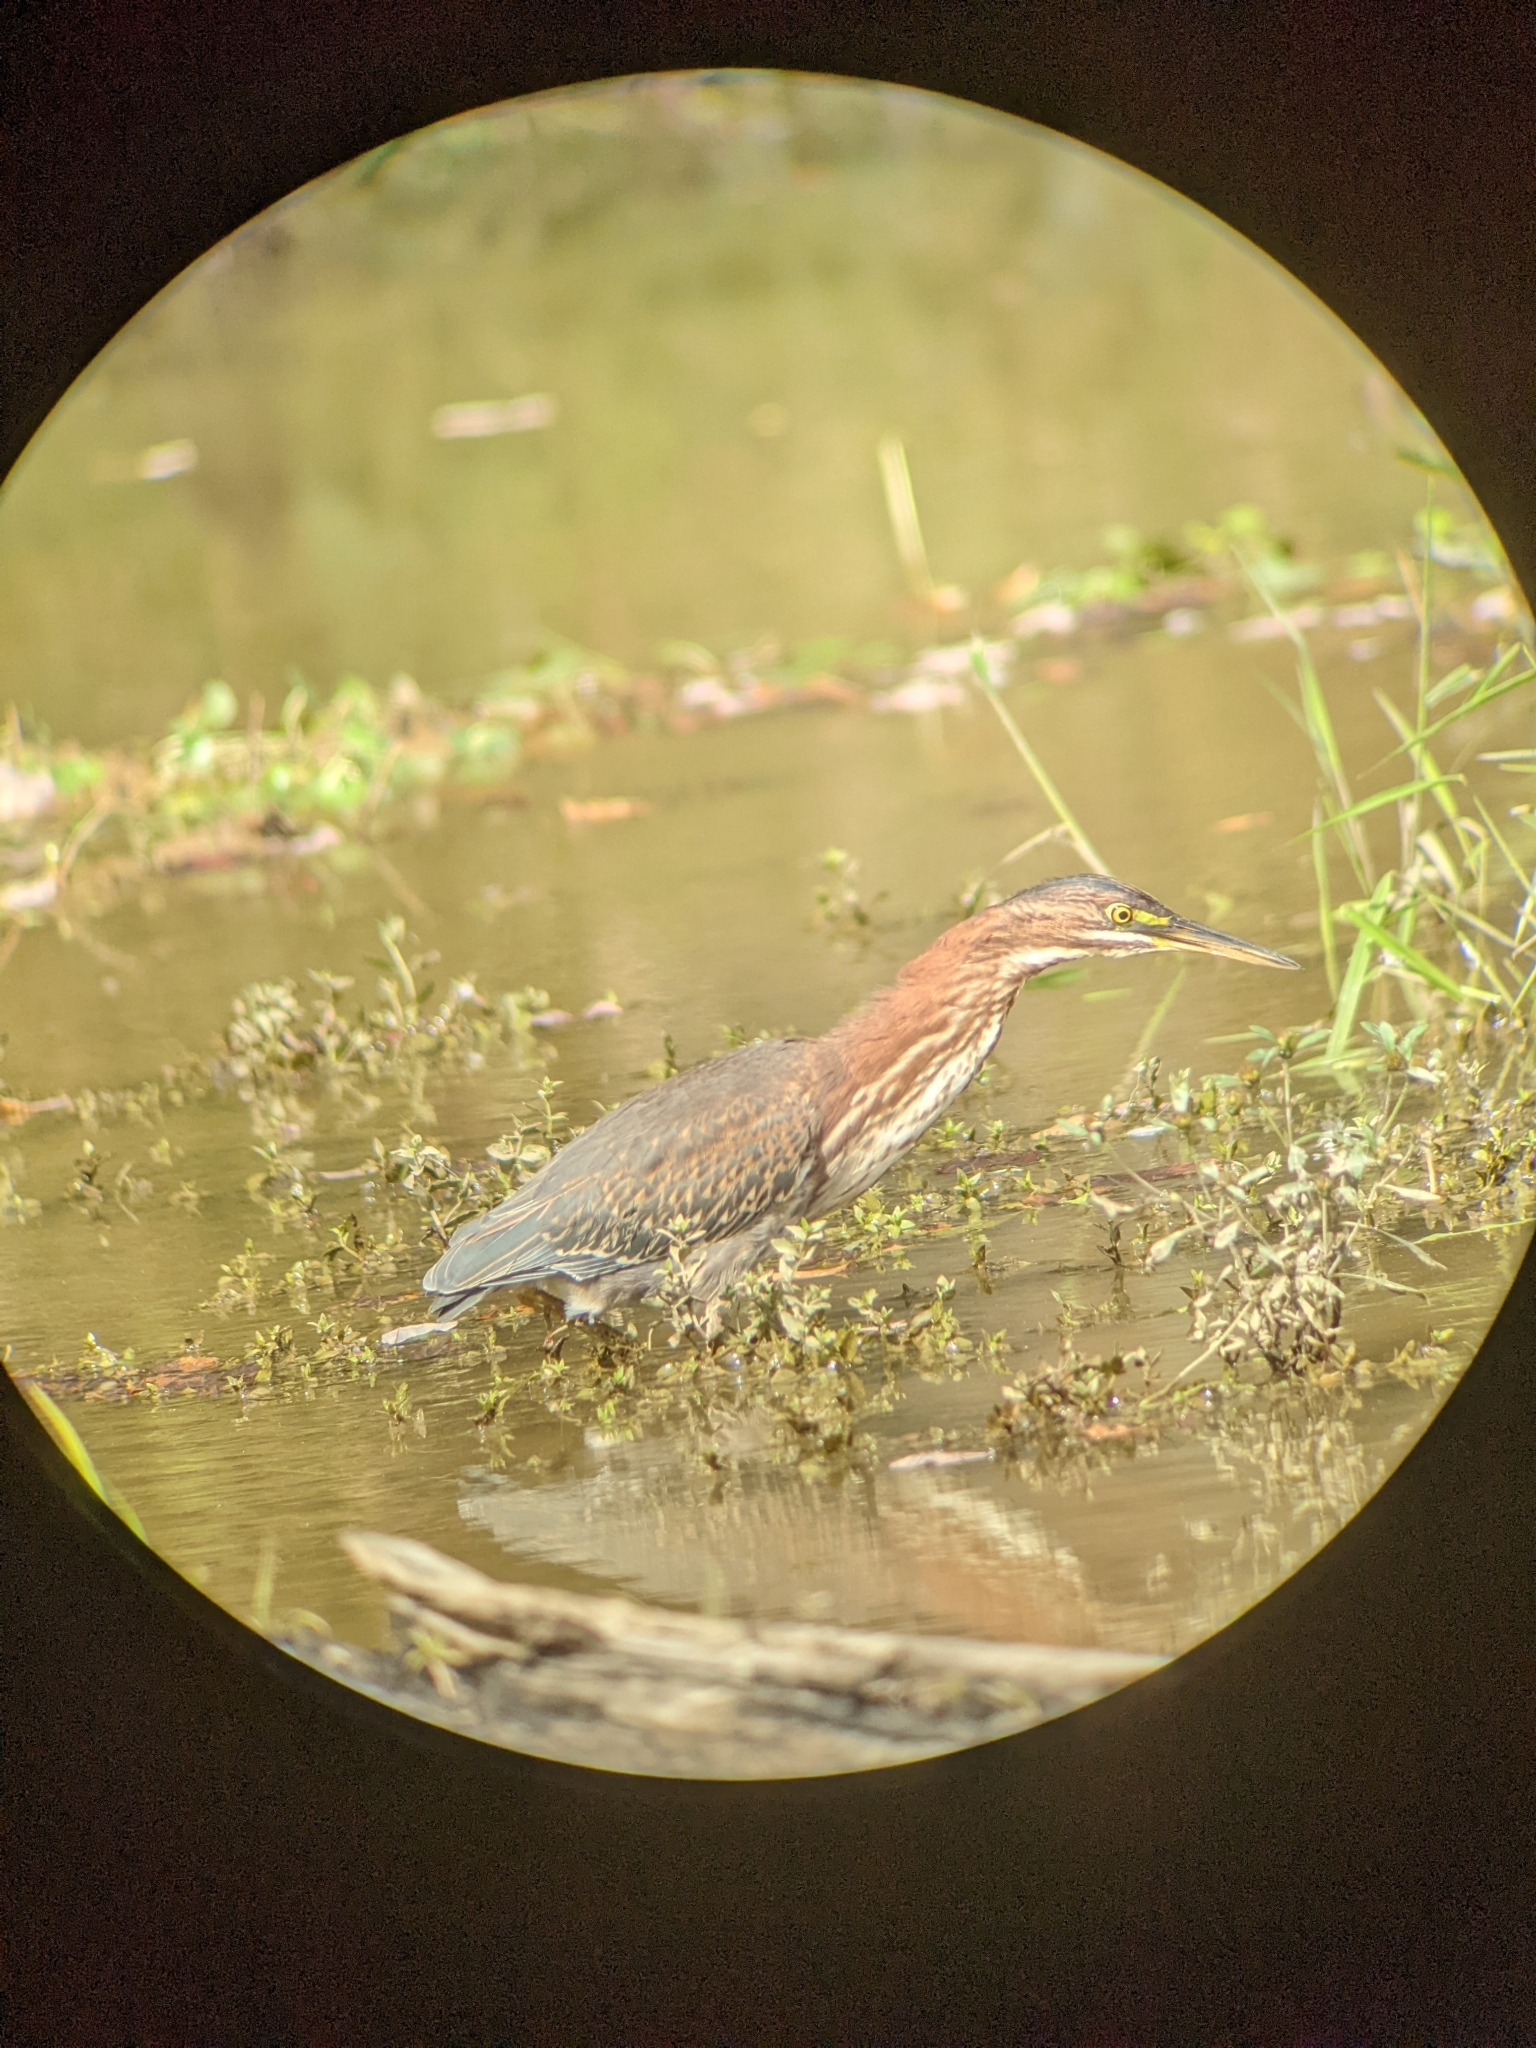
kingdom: Animalia
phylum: Chordata
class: Aves
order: Pelecaniformes
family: Ardeidae
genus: Butorides
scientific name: Butorides virescens
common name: Green heron
